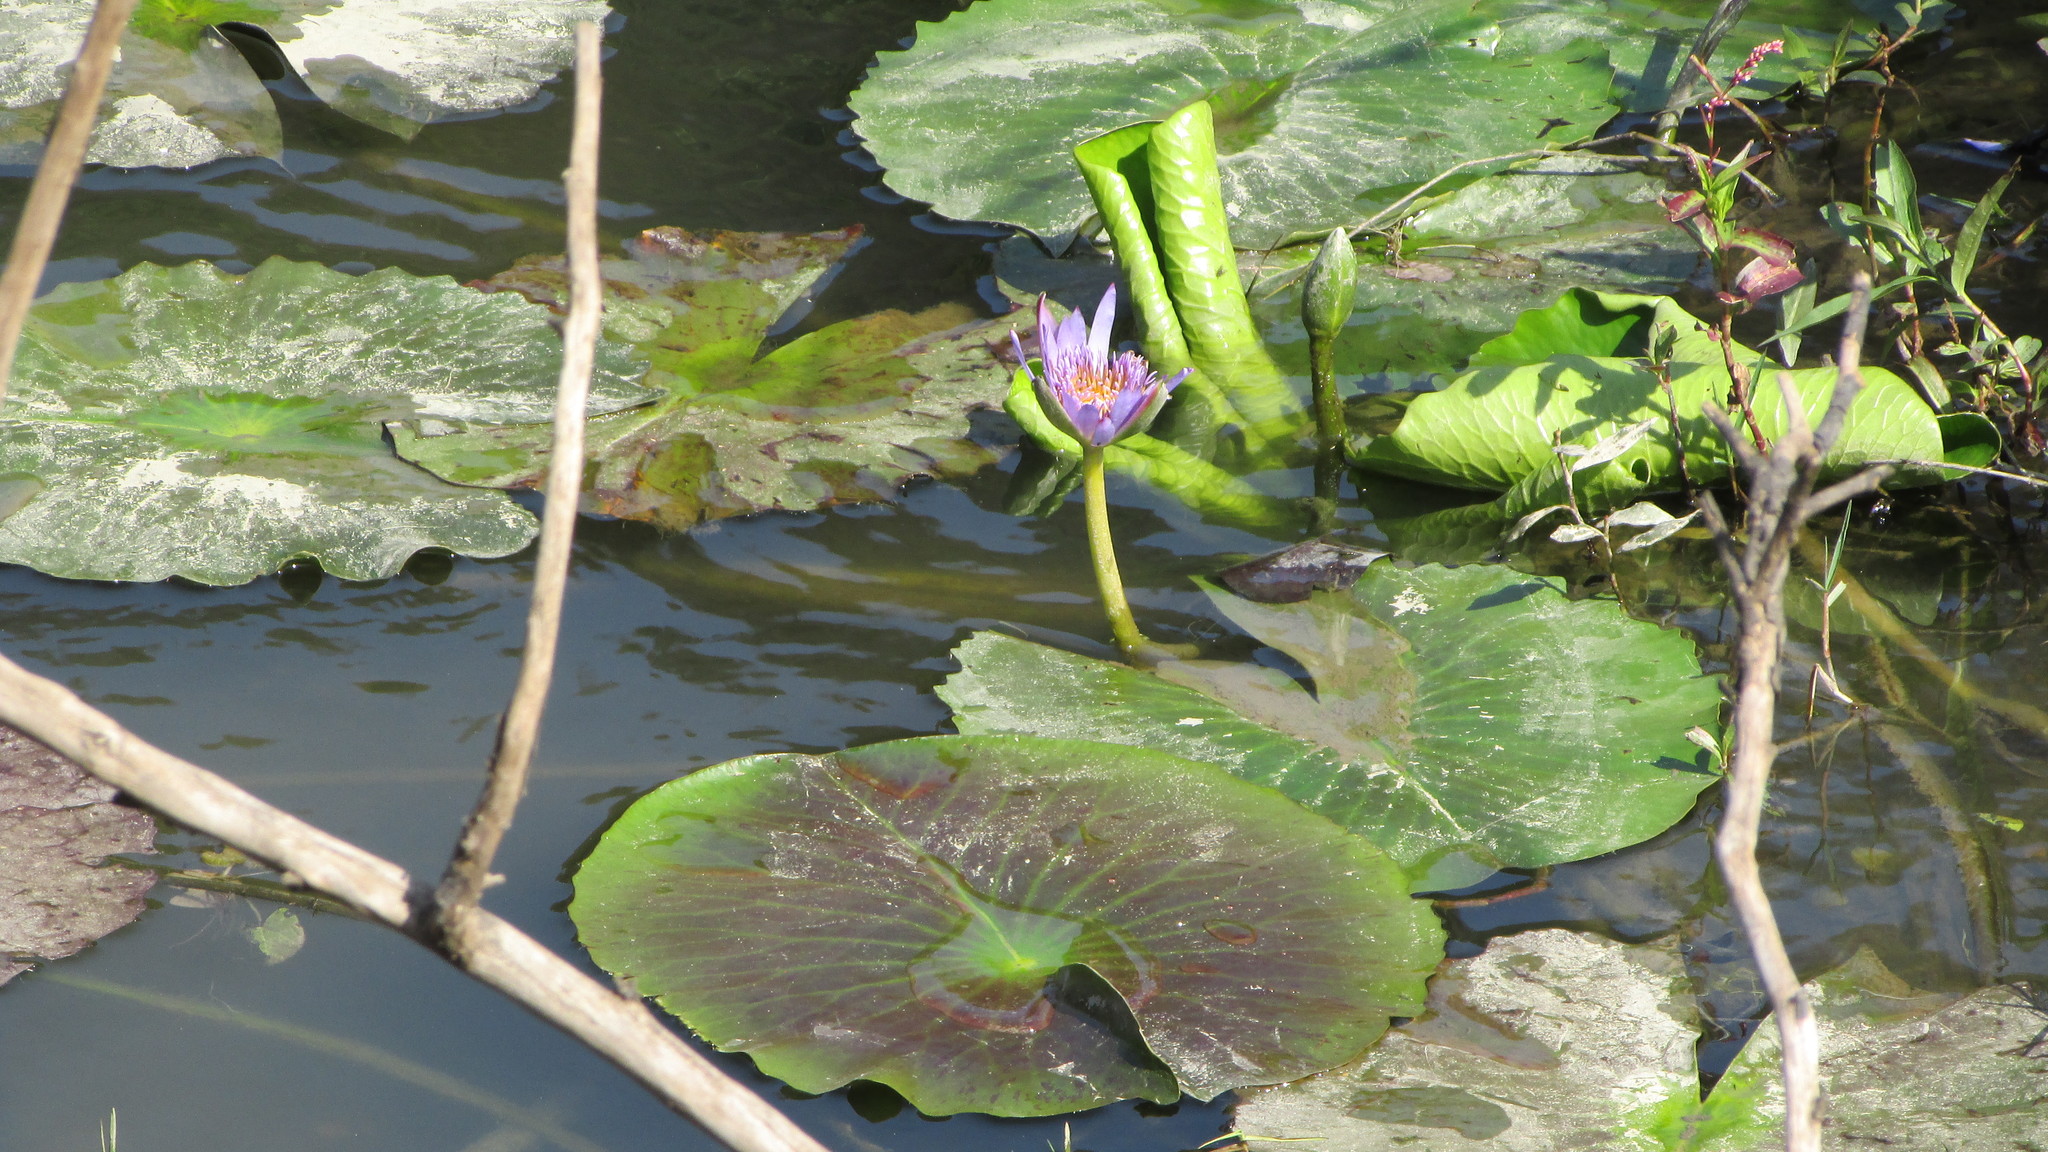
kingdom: Plantae
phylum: Tracheophyta
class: Magnoliopsida
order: Nymphaeales
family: Nymphaeaceae
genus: Nymphaea
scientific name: Nymphaea nouchali
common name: Blue lotus
